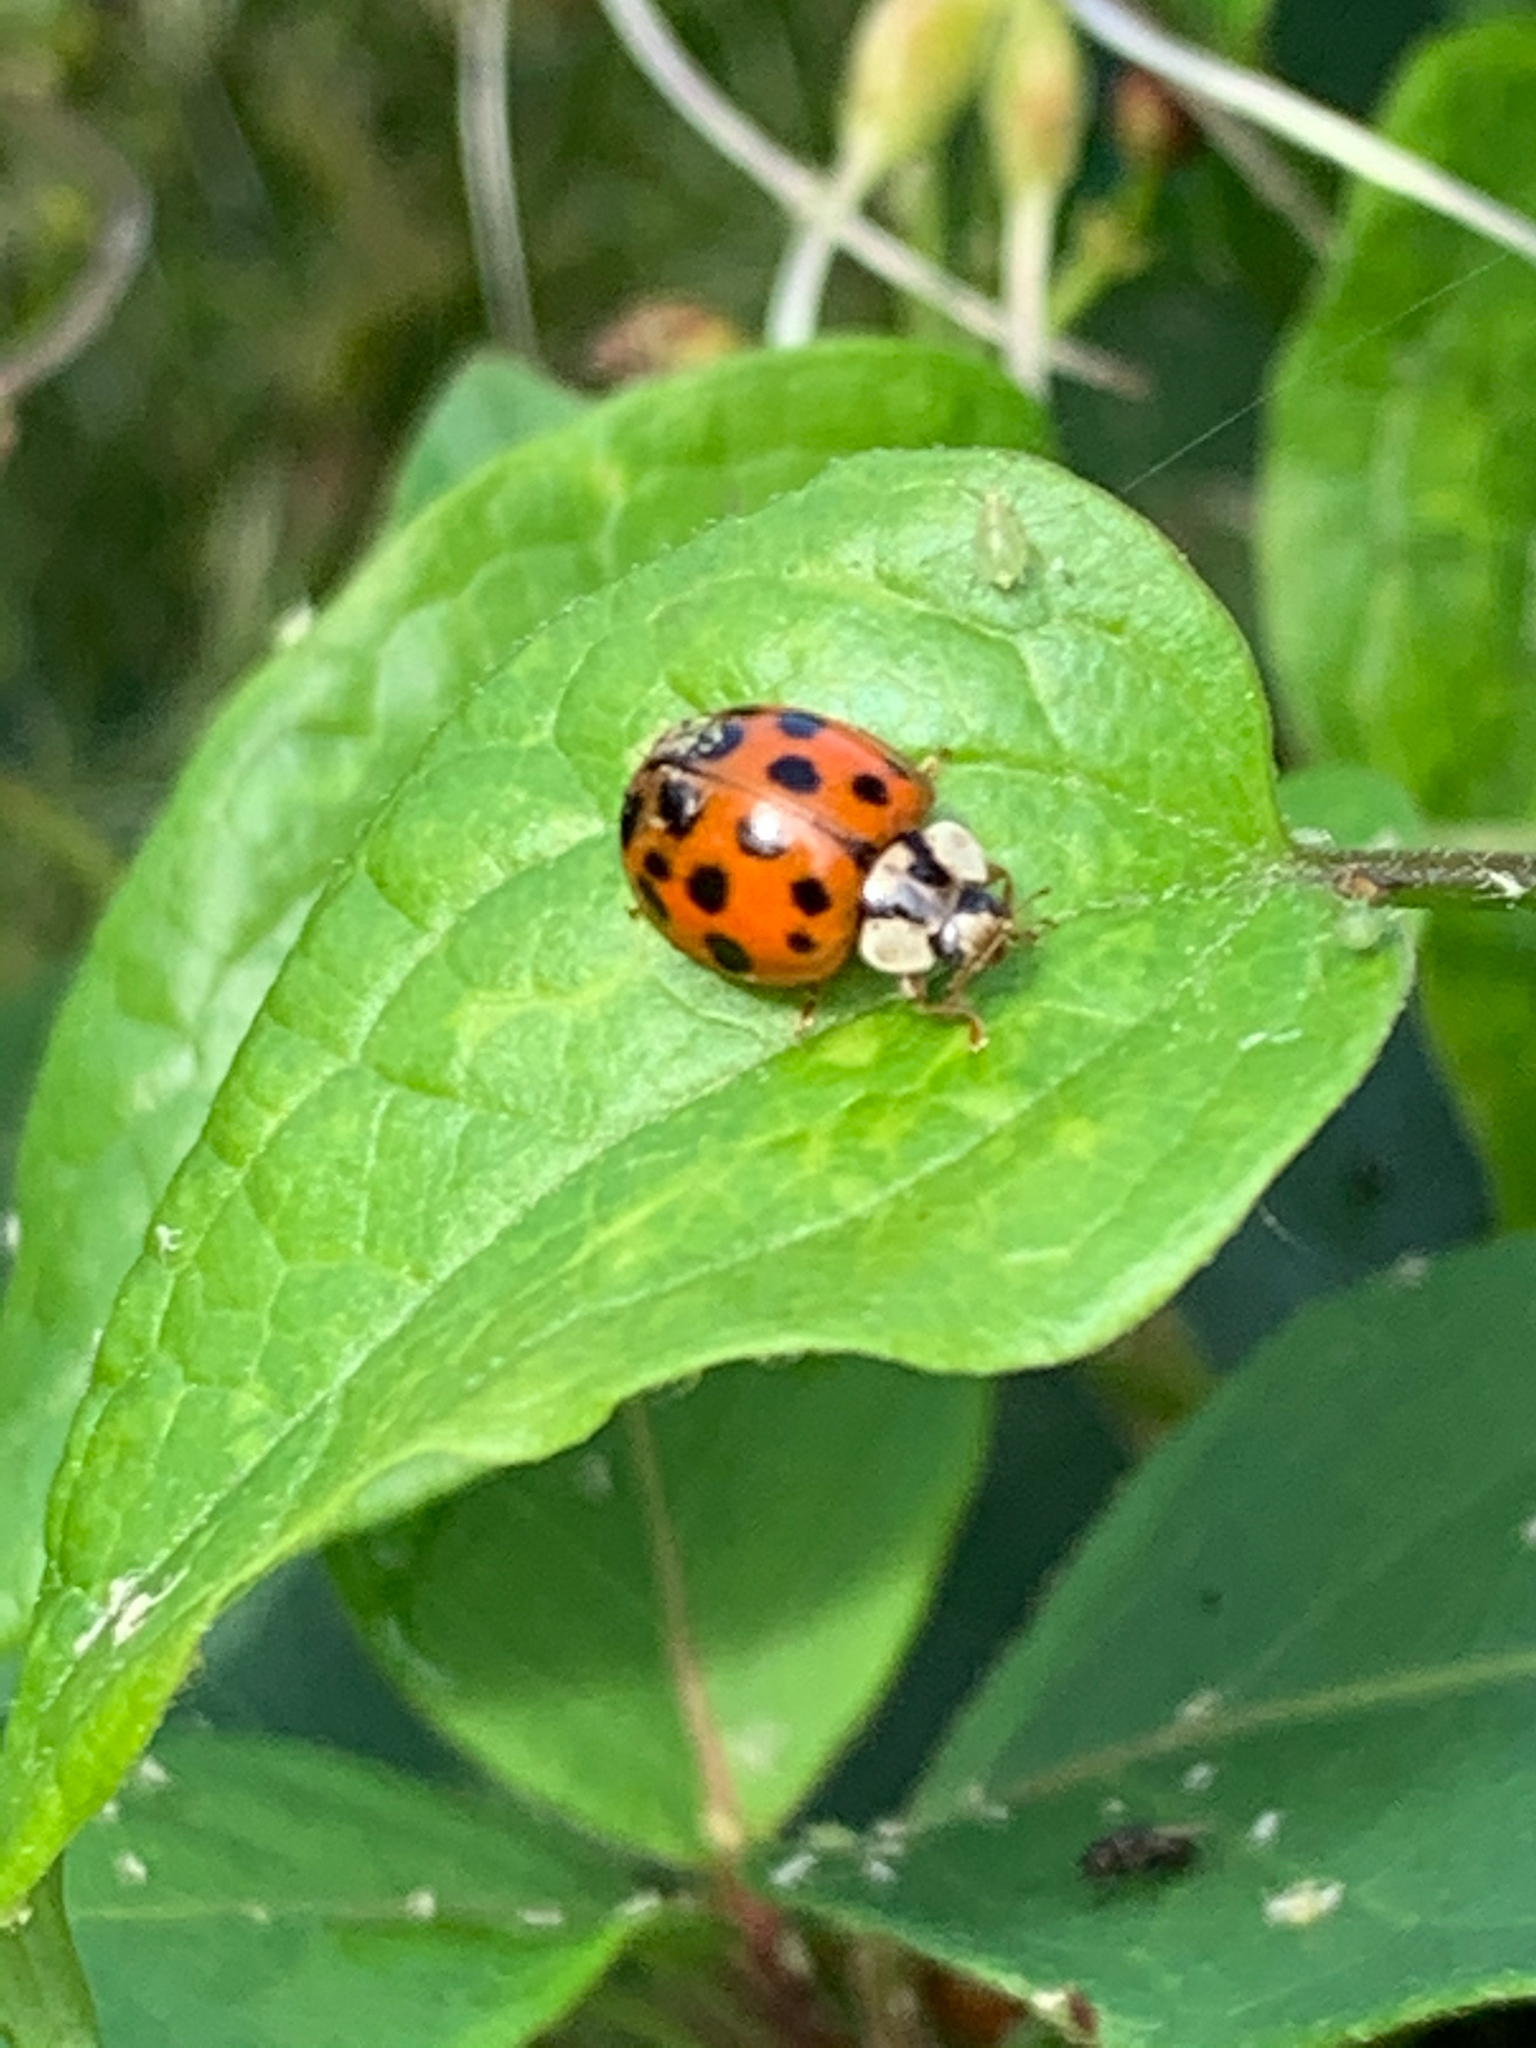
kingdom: Animalia
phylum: Arthropoda
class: Insecta
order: Coleoptera
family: Coccinellidae
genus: Harmonia
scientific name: Harmonia axyridis
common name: Harlequin ladybird
